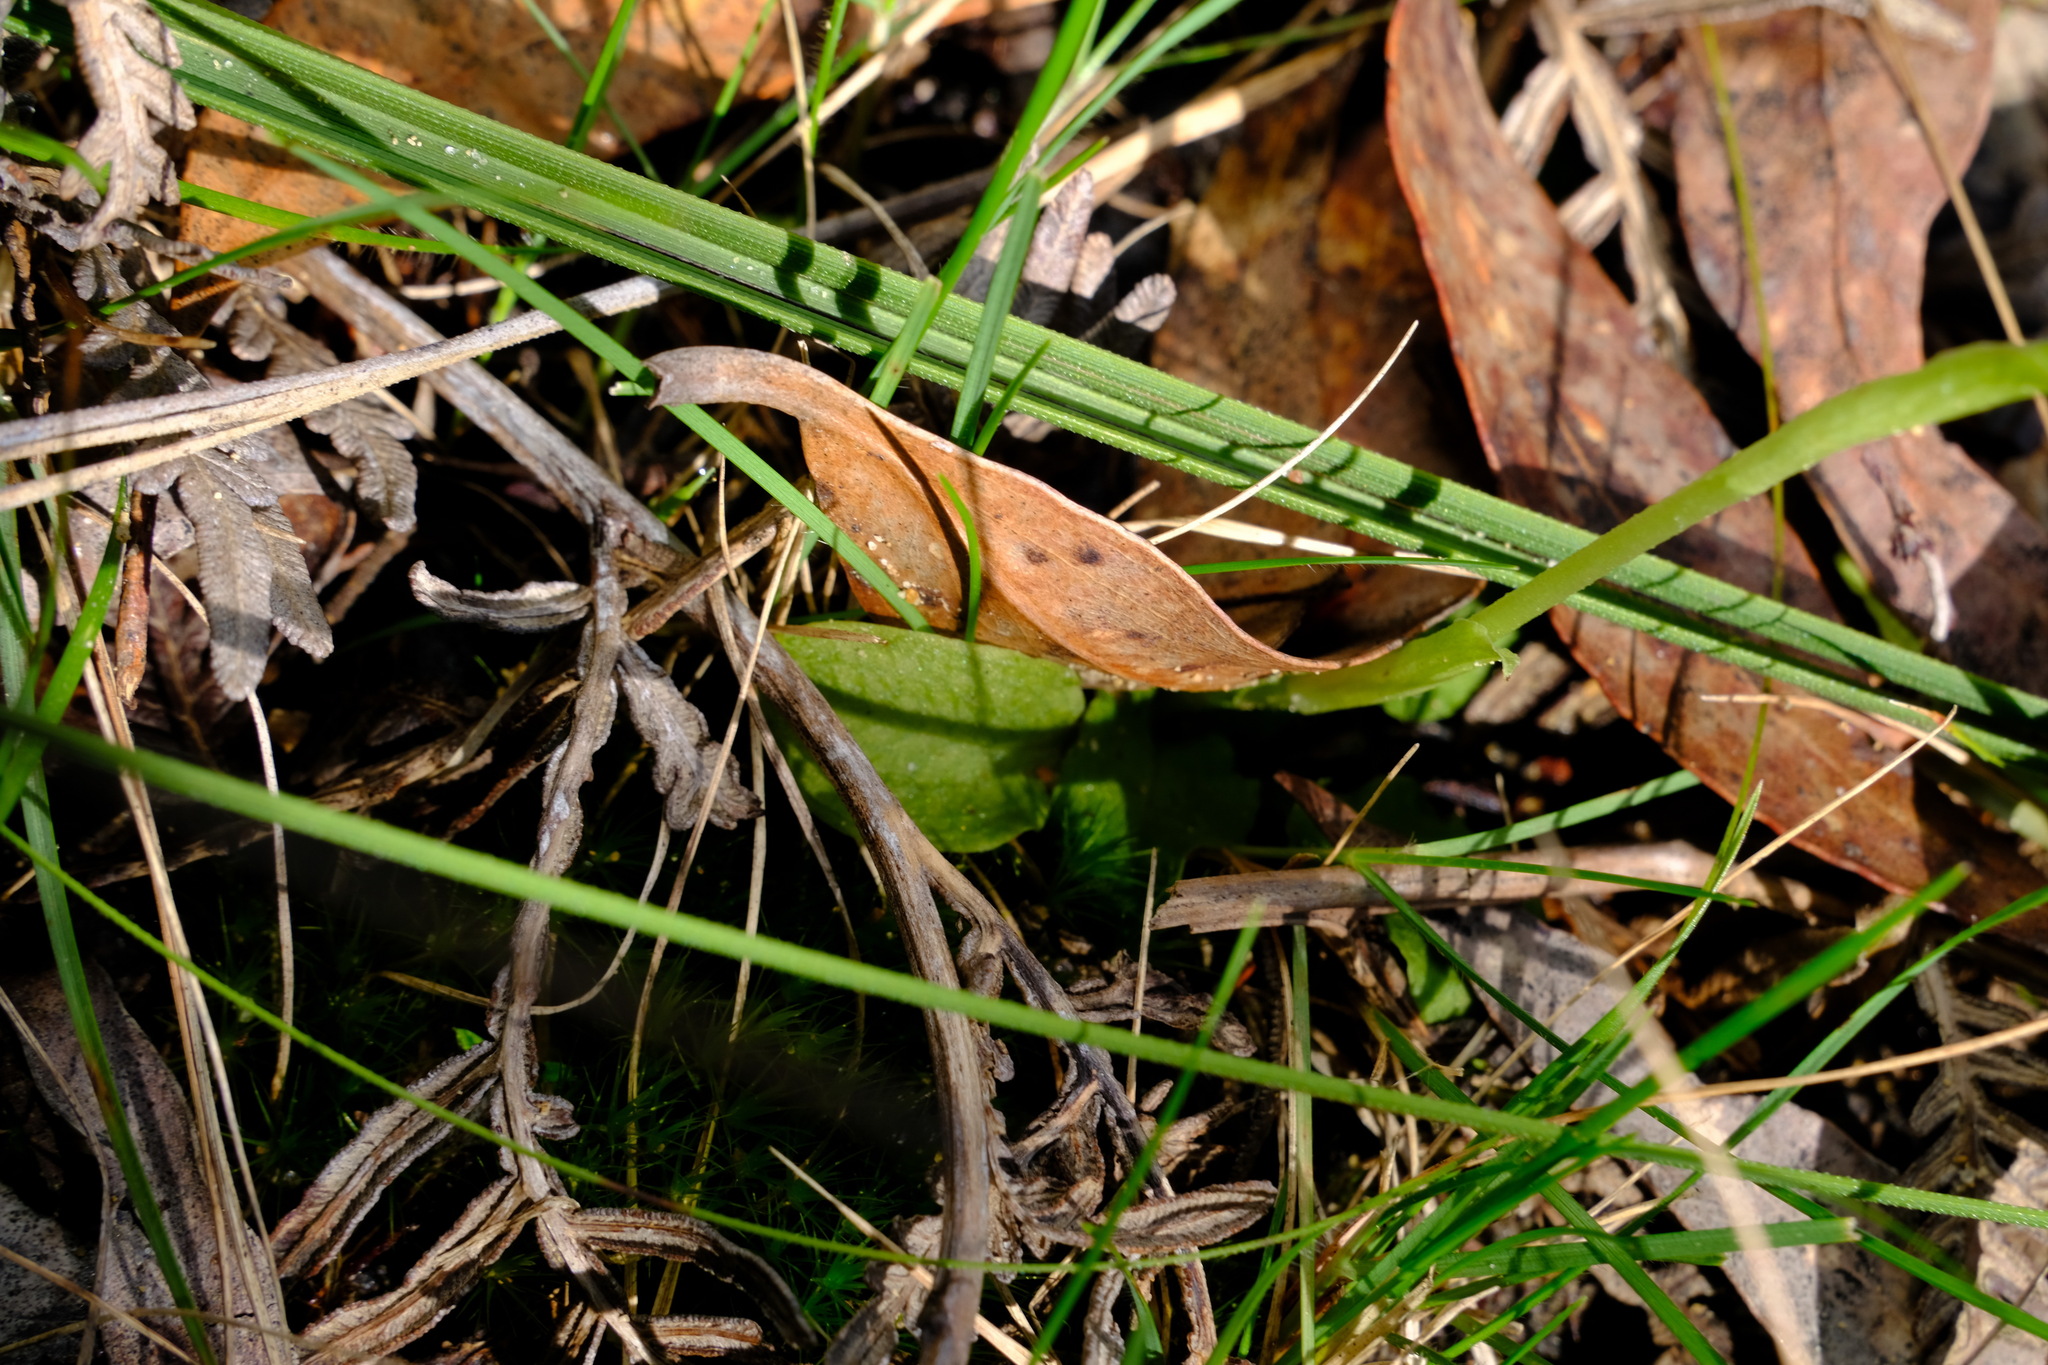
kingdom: Plantae
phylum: Tracheophyta
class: Liliopsida
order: Asparagales
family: Orchidaceae
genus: Pterostylis
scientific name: Pterostylis pedunculata
